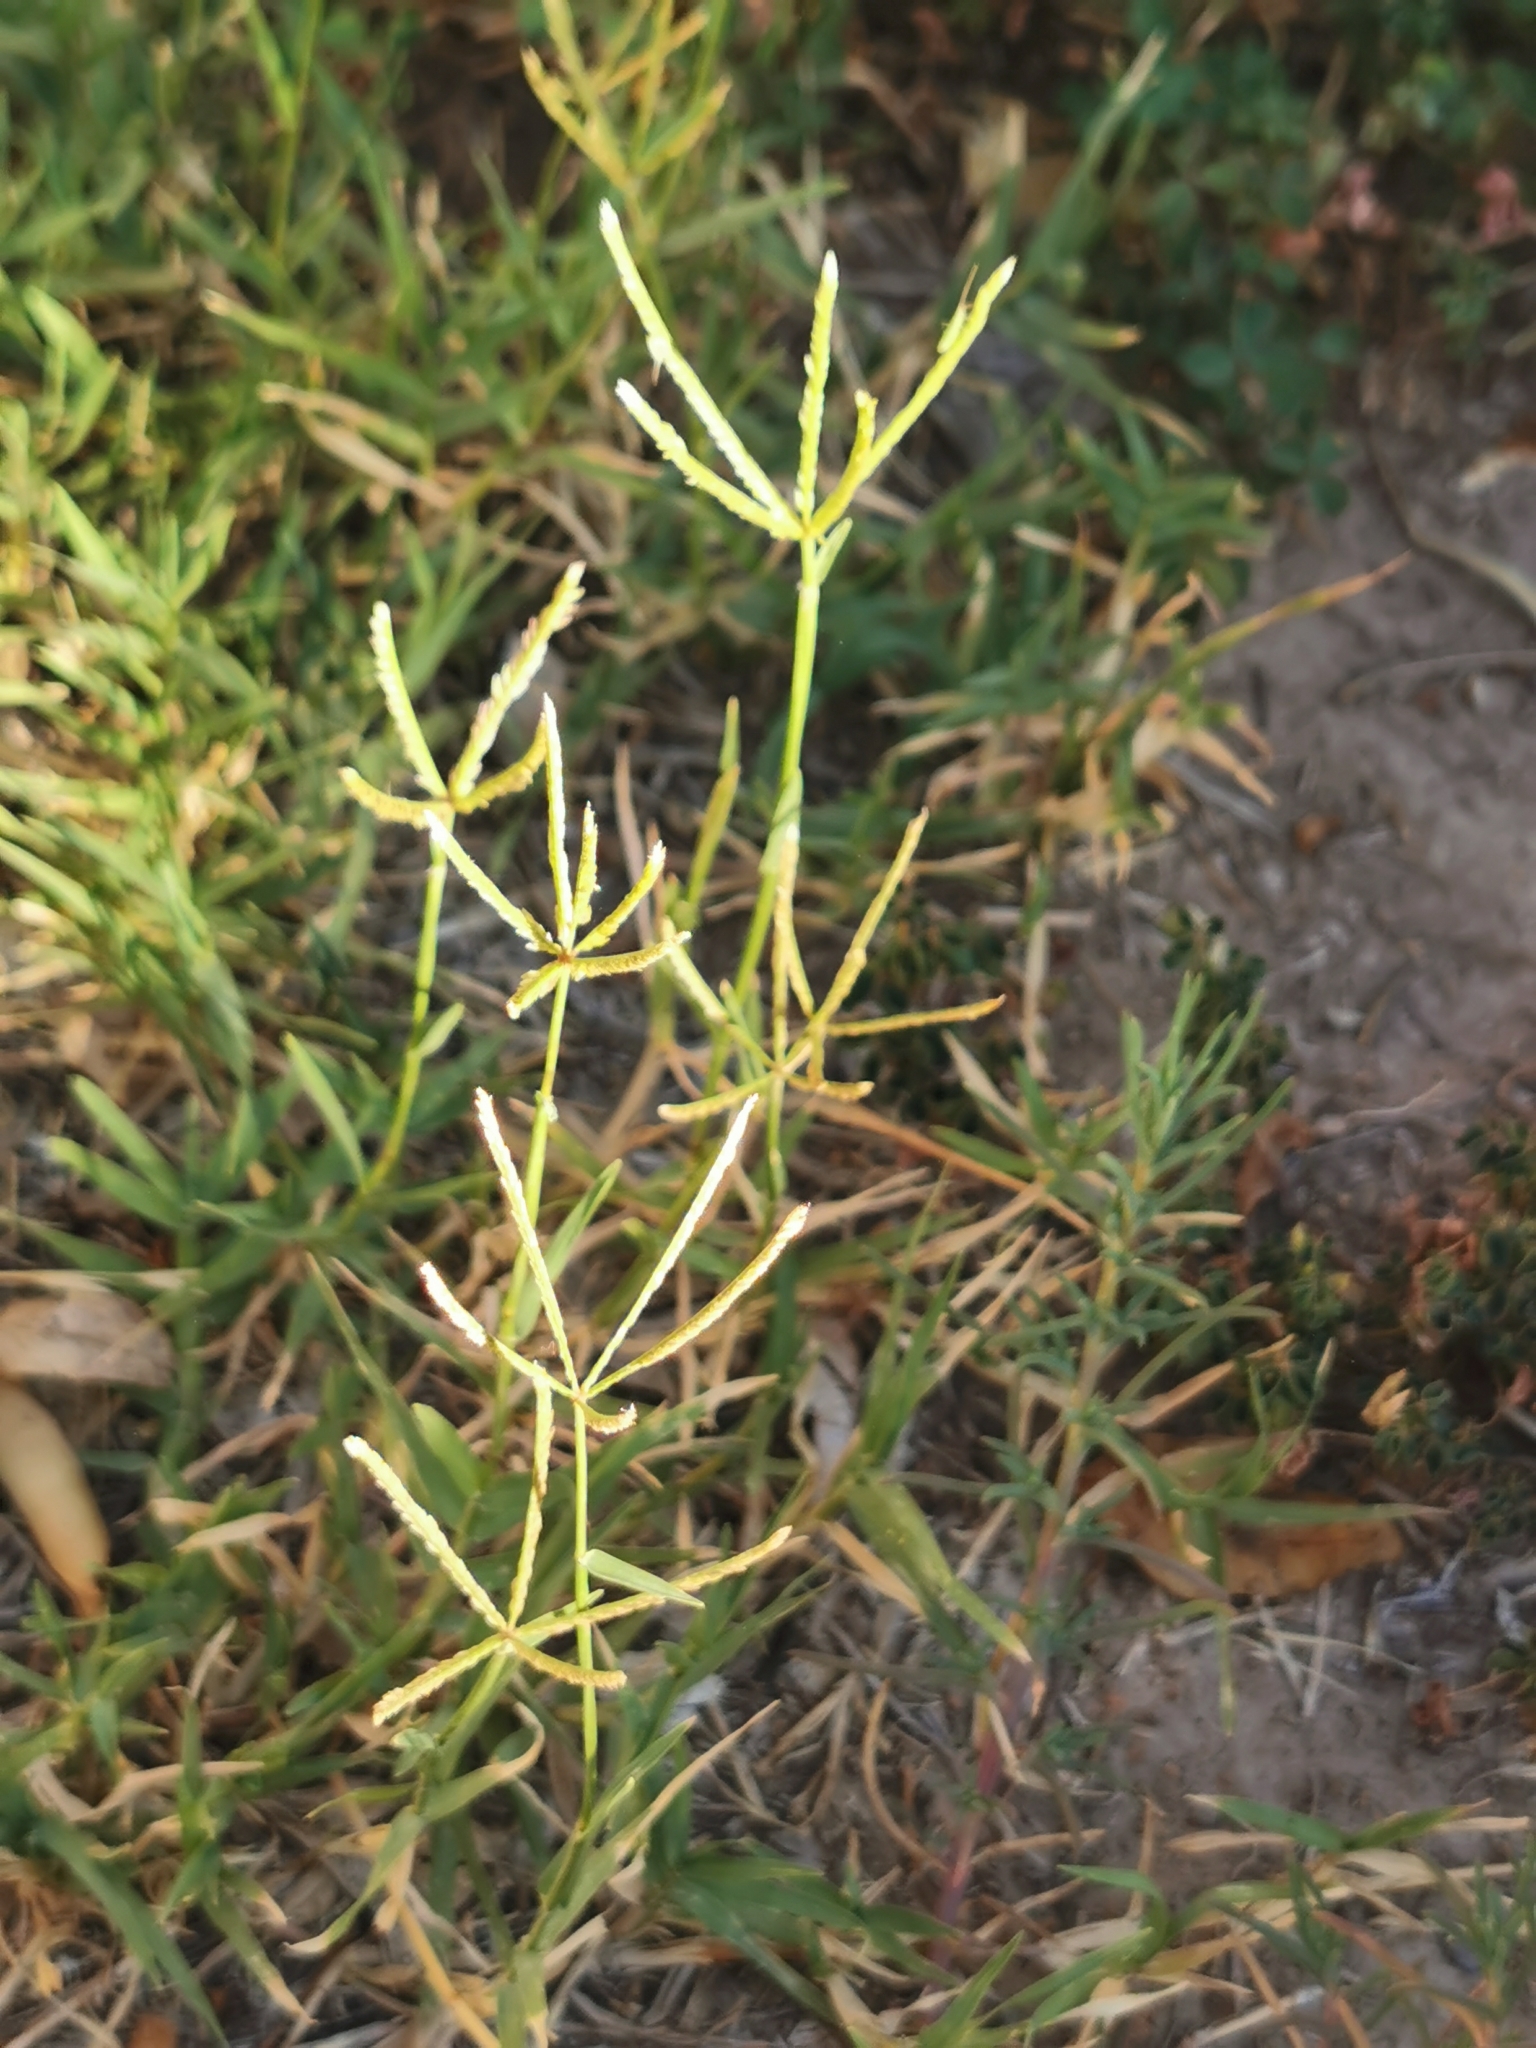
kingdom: Plantae
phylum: Tracheophyta
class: Liliopsida
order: Poales
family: Poaceae
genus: Cynodon
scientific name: Cynodon dactylon
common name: Bermuda grass
